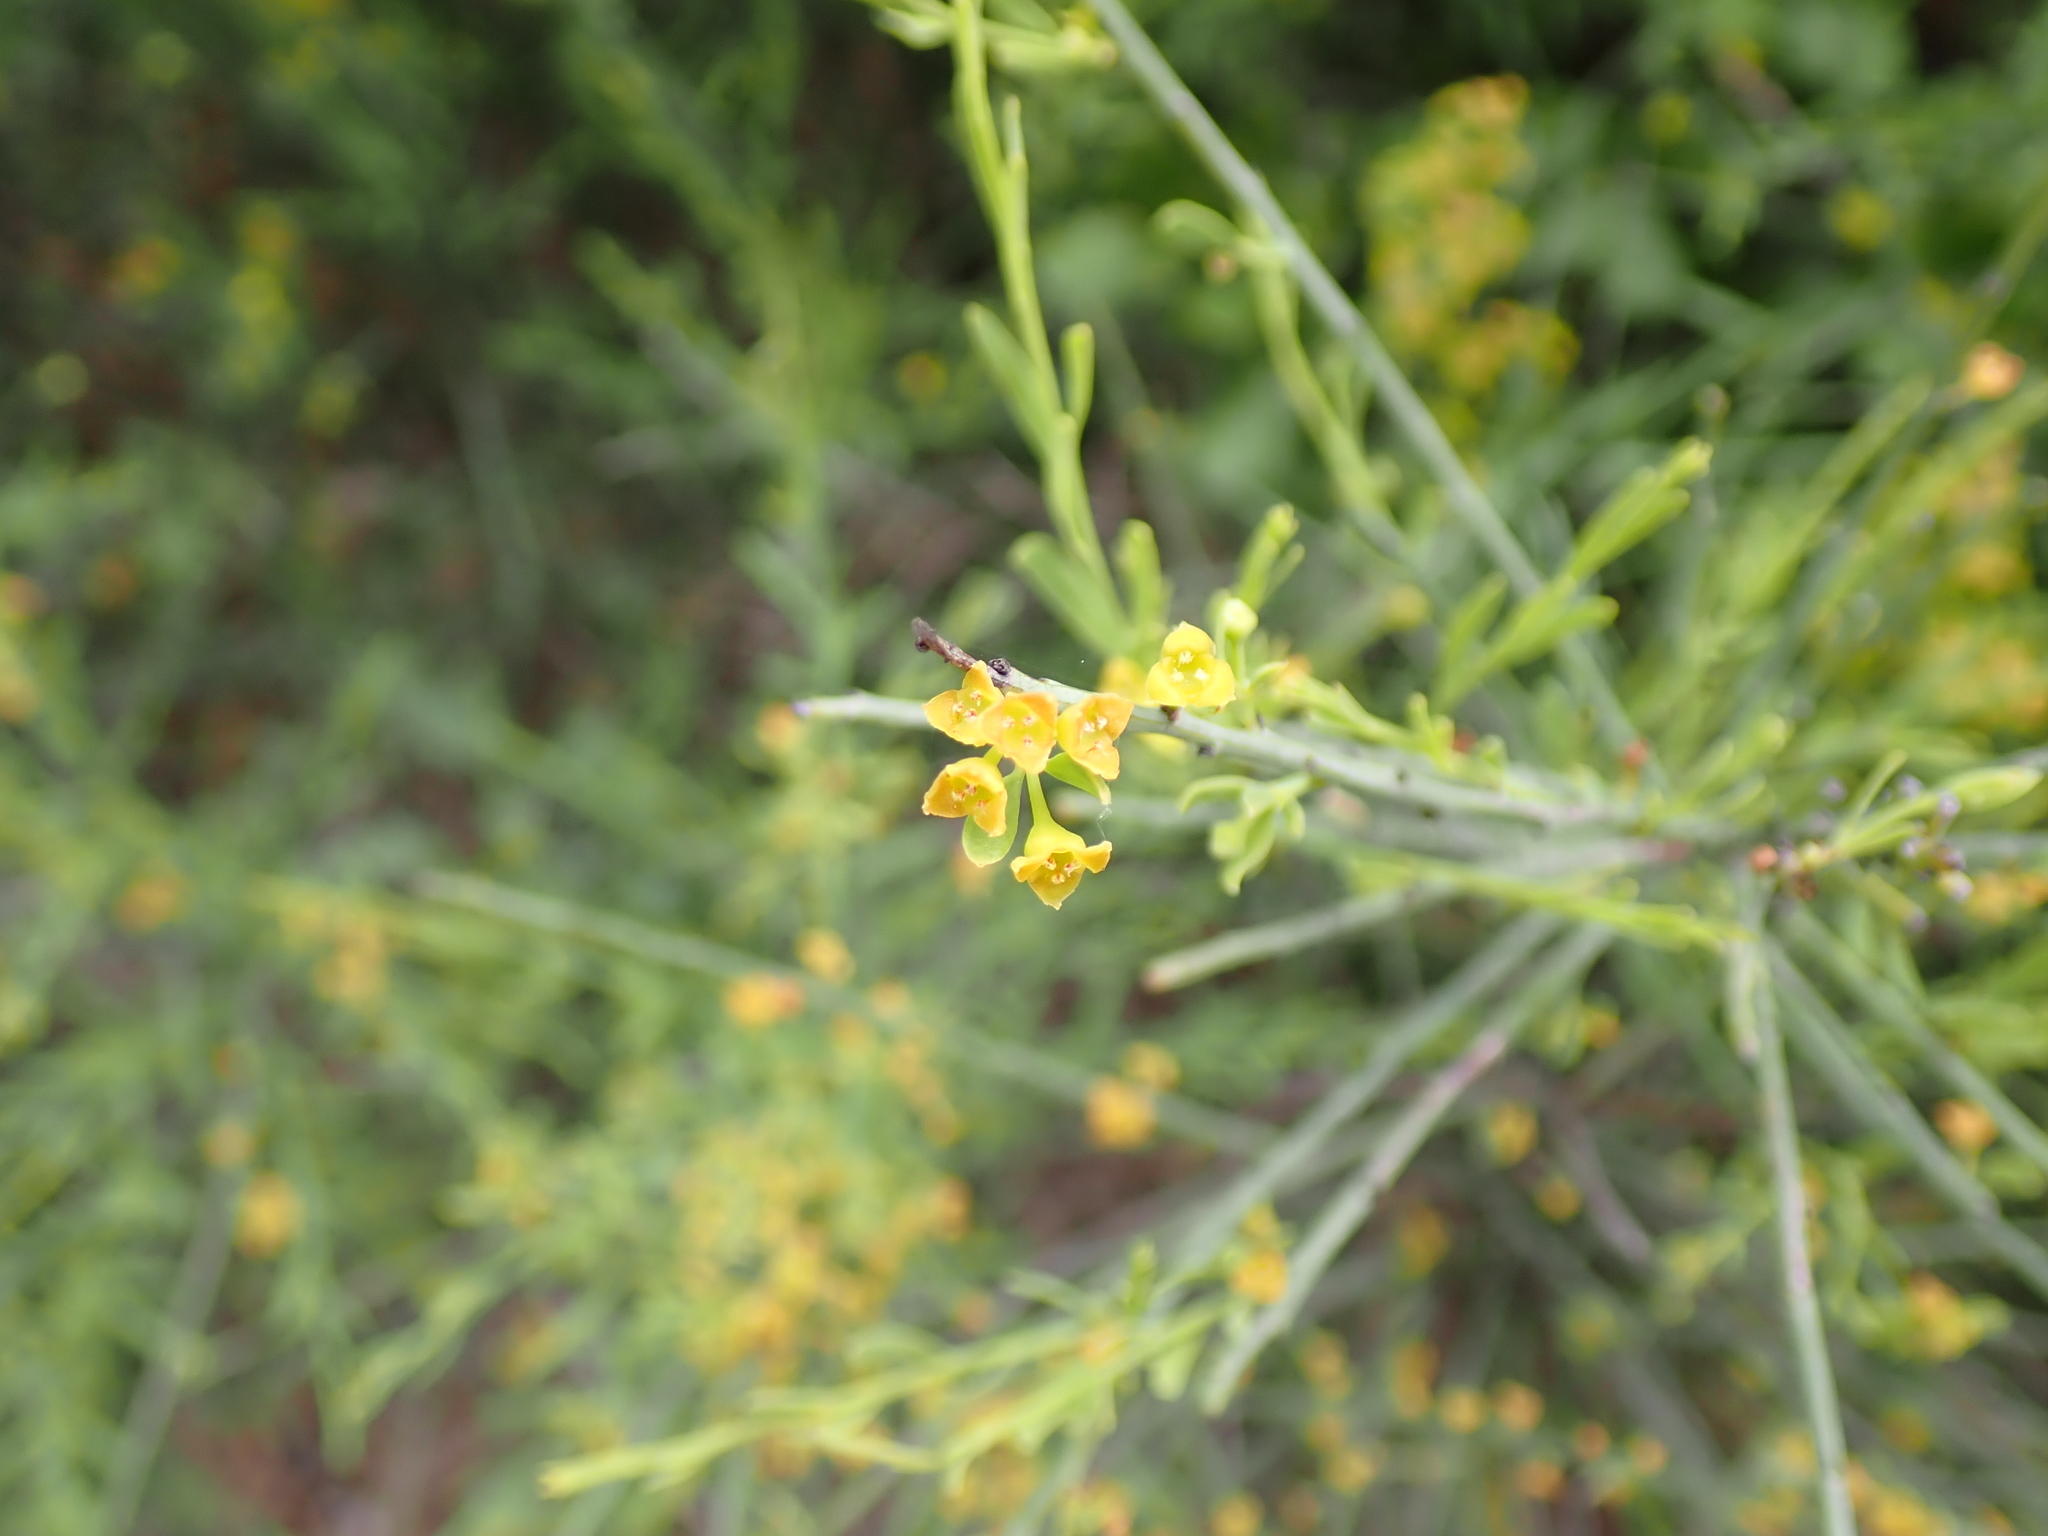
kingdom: Plantae
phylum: Tracheophyta
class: Magnoliopsida
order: Santalales
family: Santalaceae
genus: Osyris
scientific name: Osyris alba
